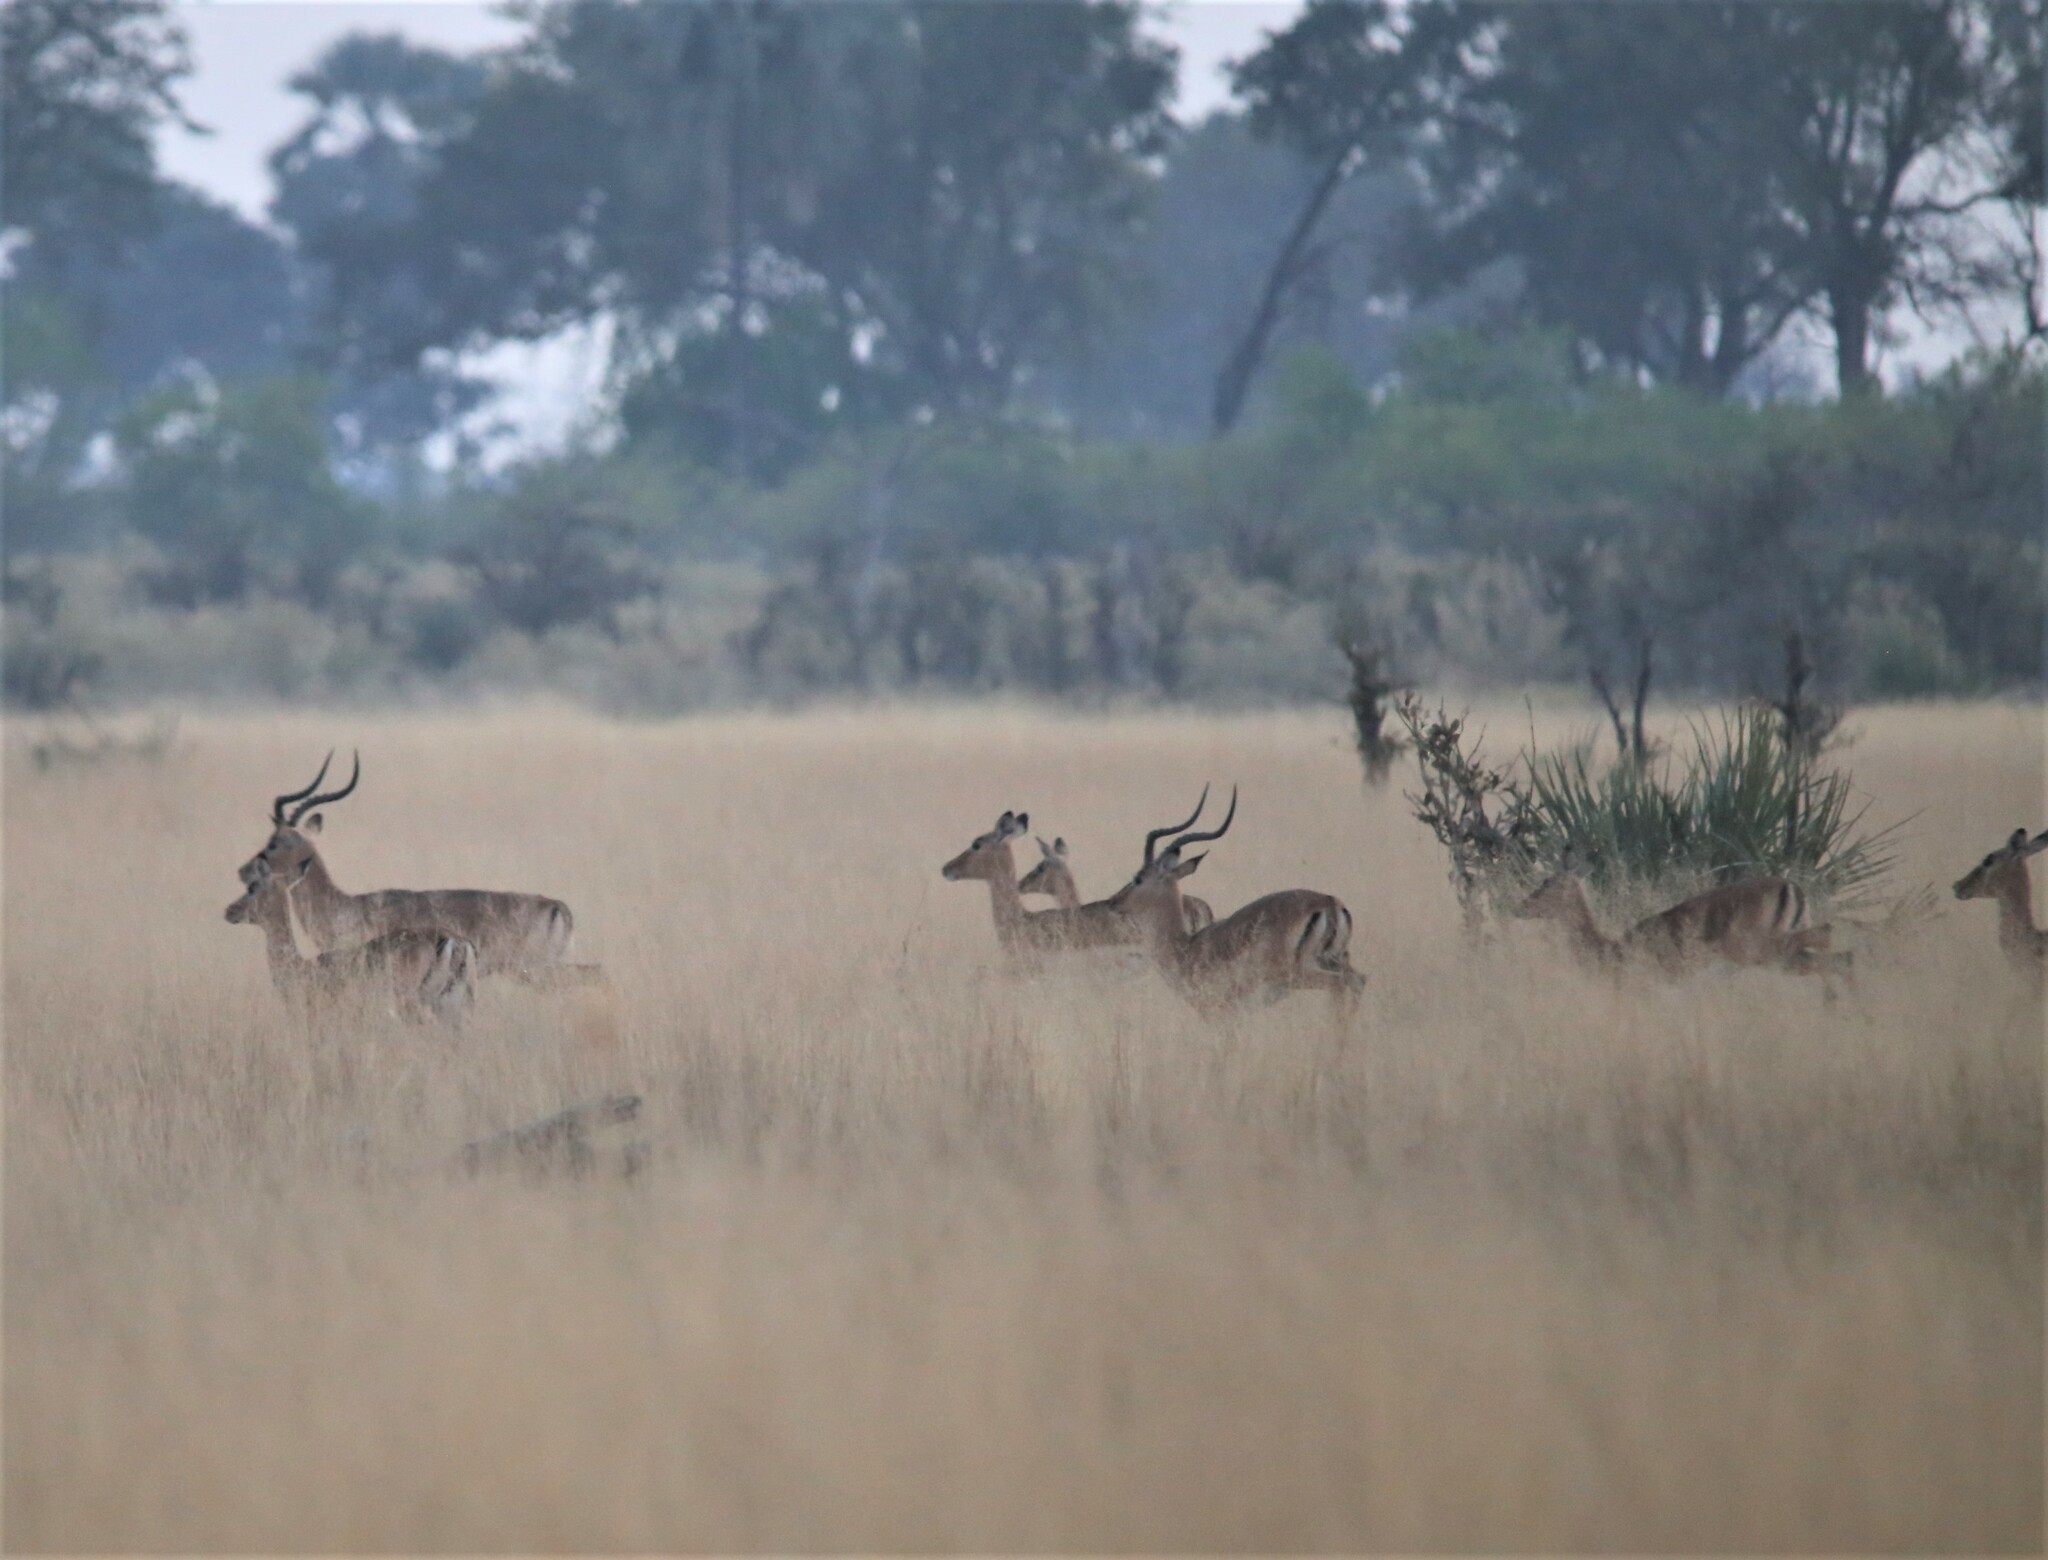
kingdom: Animalia
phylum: Chordata
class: Mammalia
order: Artiodactyla
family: Bovidae
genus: Aepyceros
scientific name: Aepyceros melampus
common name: Impala
